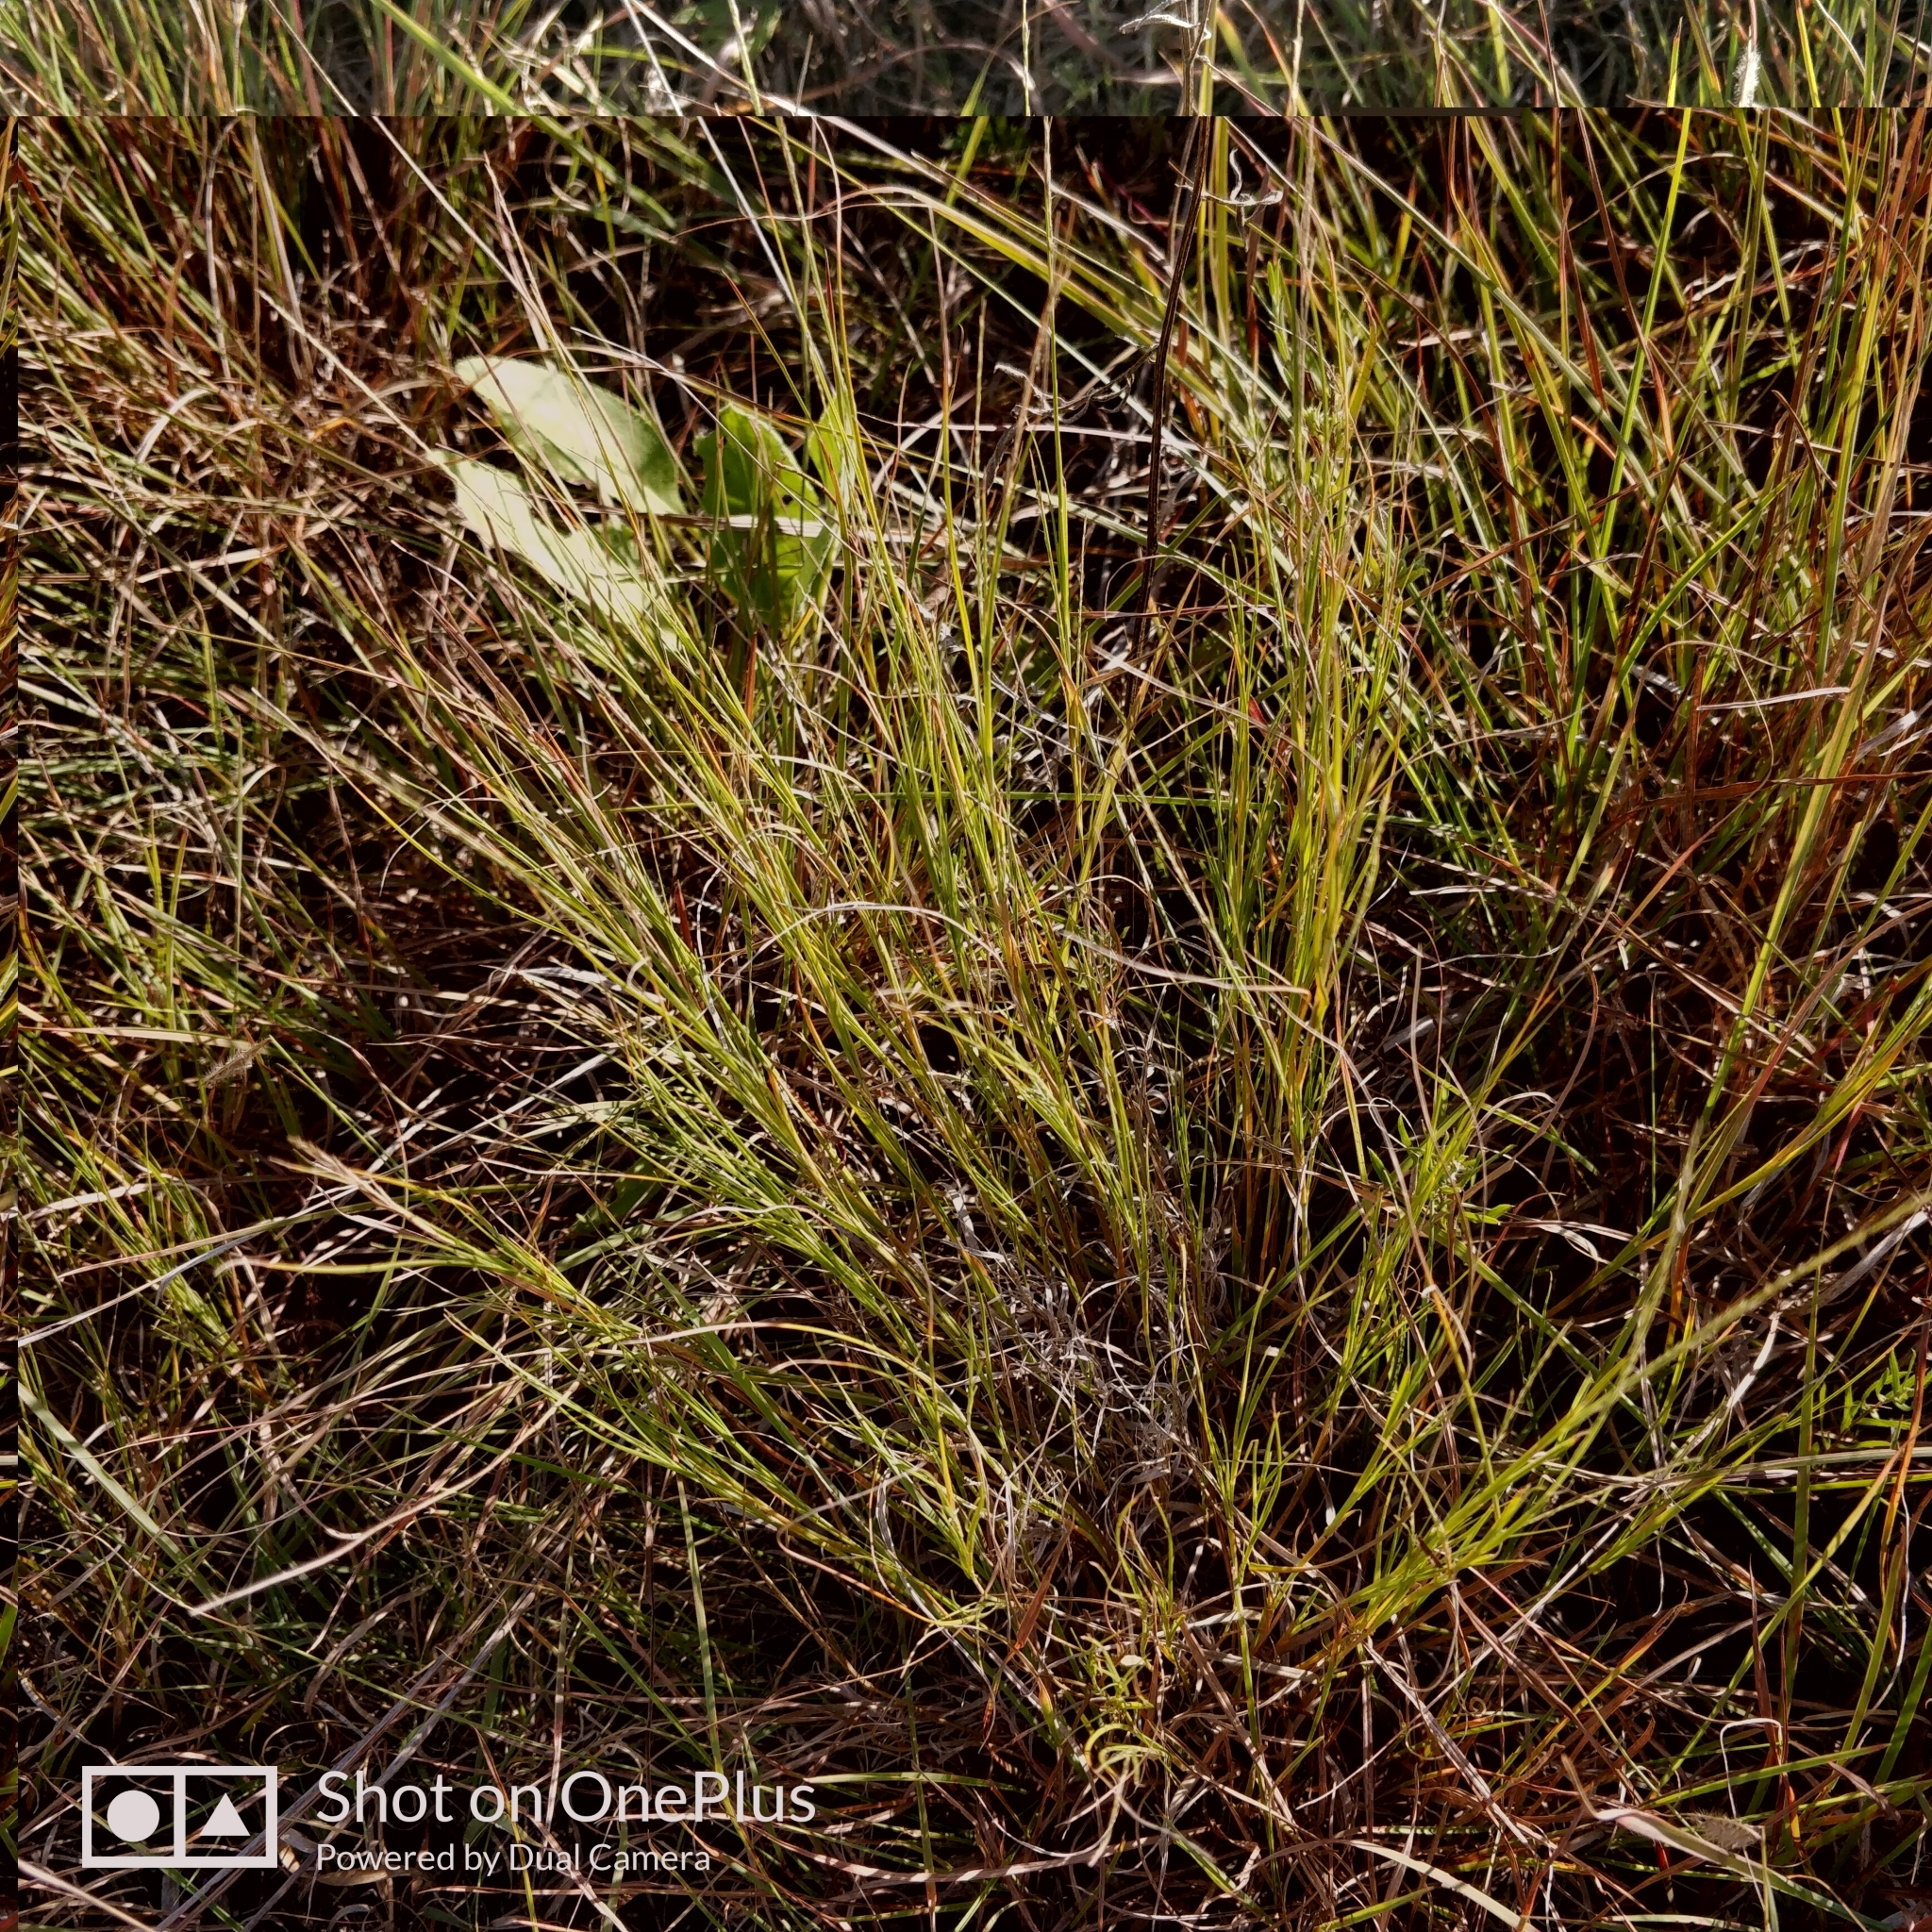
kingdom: Plantae
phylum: Tracheophyta
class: Liliopsida
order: Poales
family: Poaceae
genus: Muhlenbergia
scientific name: Muhlenbergia cuspidata
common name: Plains muhly
